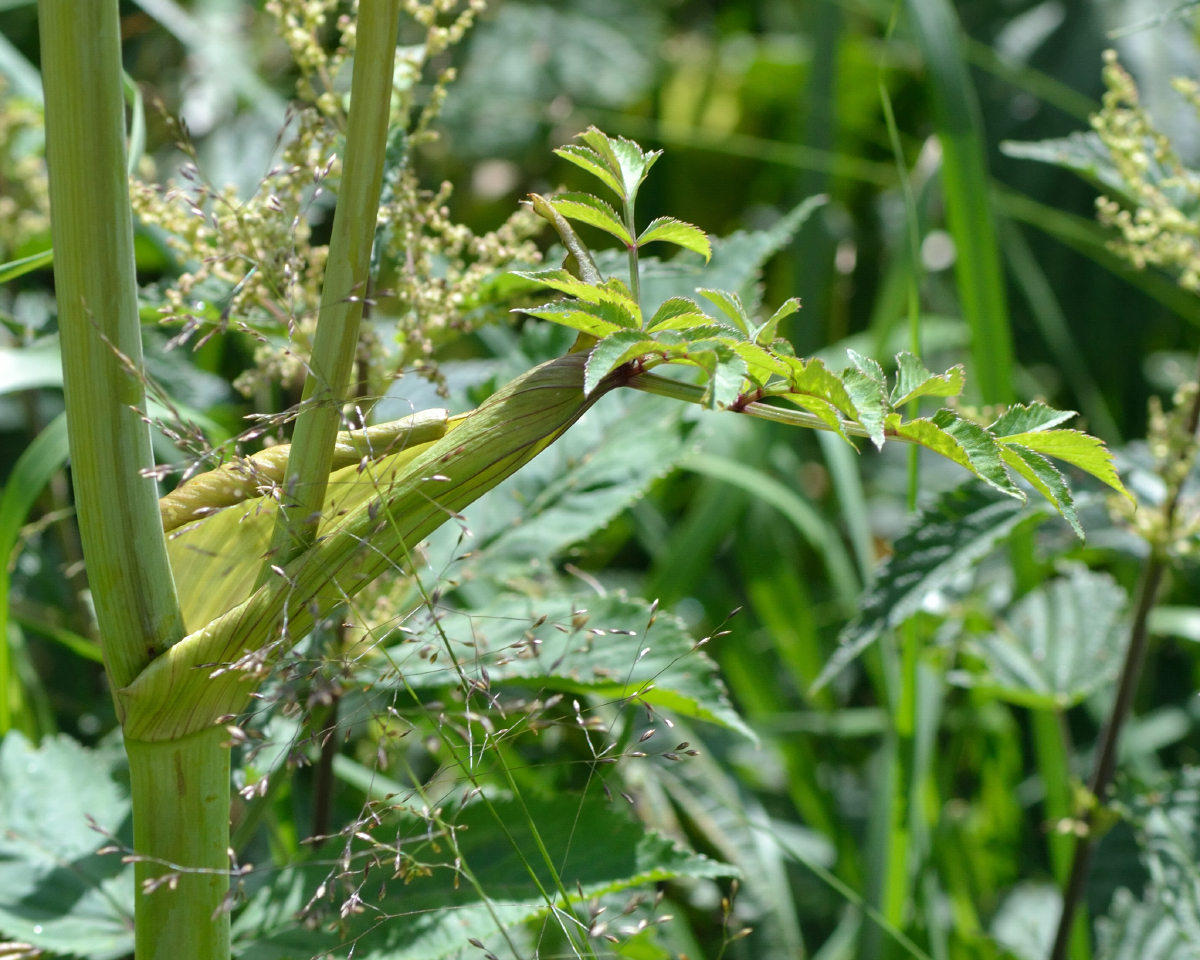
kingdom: Plantae
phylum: Tracheophyta
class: Magnoliopsida
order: Apiales
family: Apiaceae
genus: Angelica
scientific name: Angelica sylvestris
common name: Wild angelica
